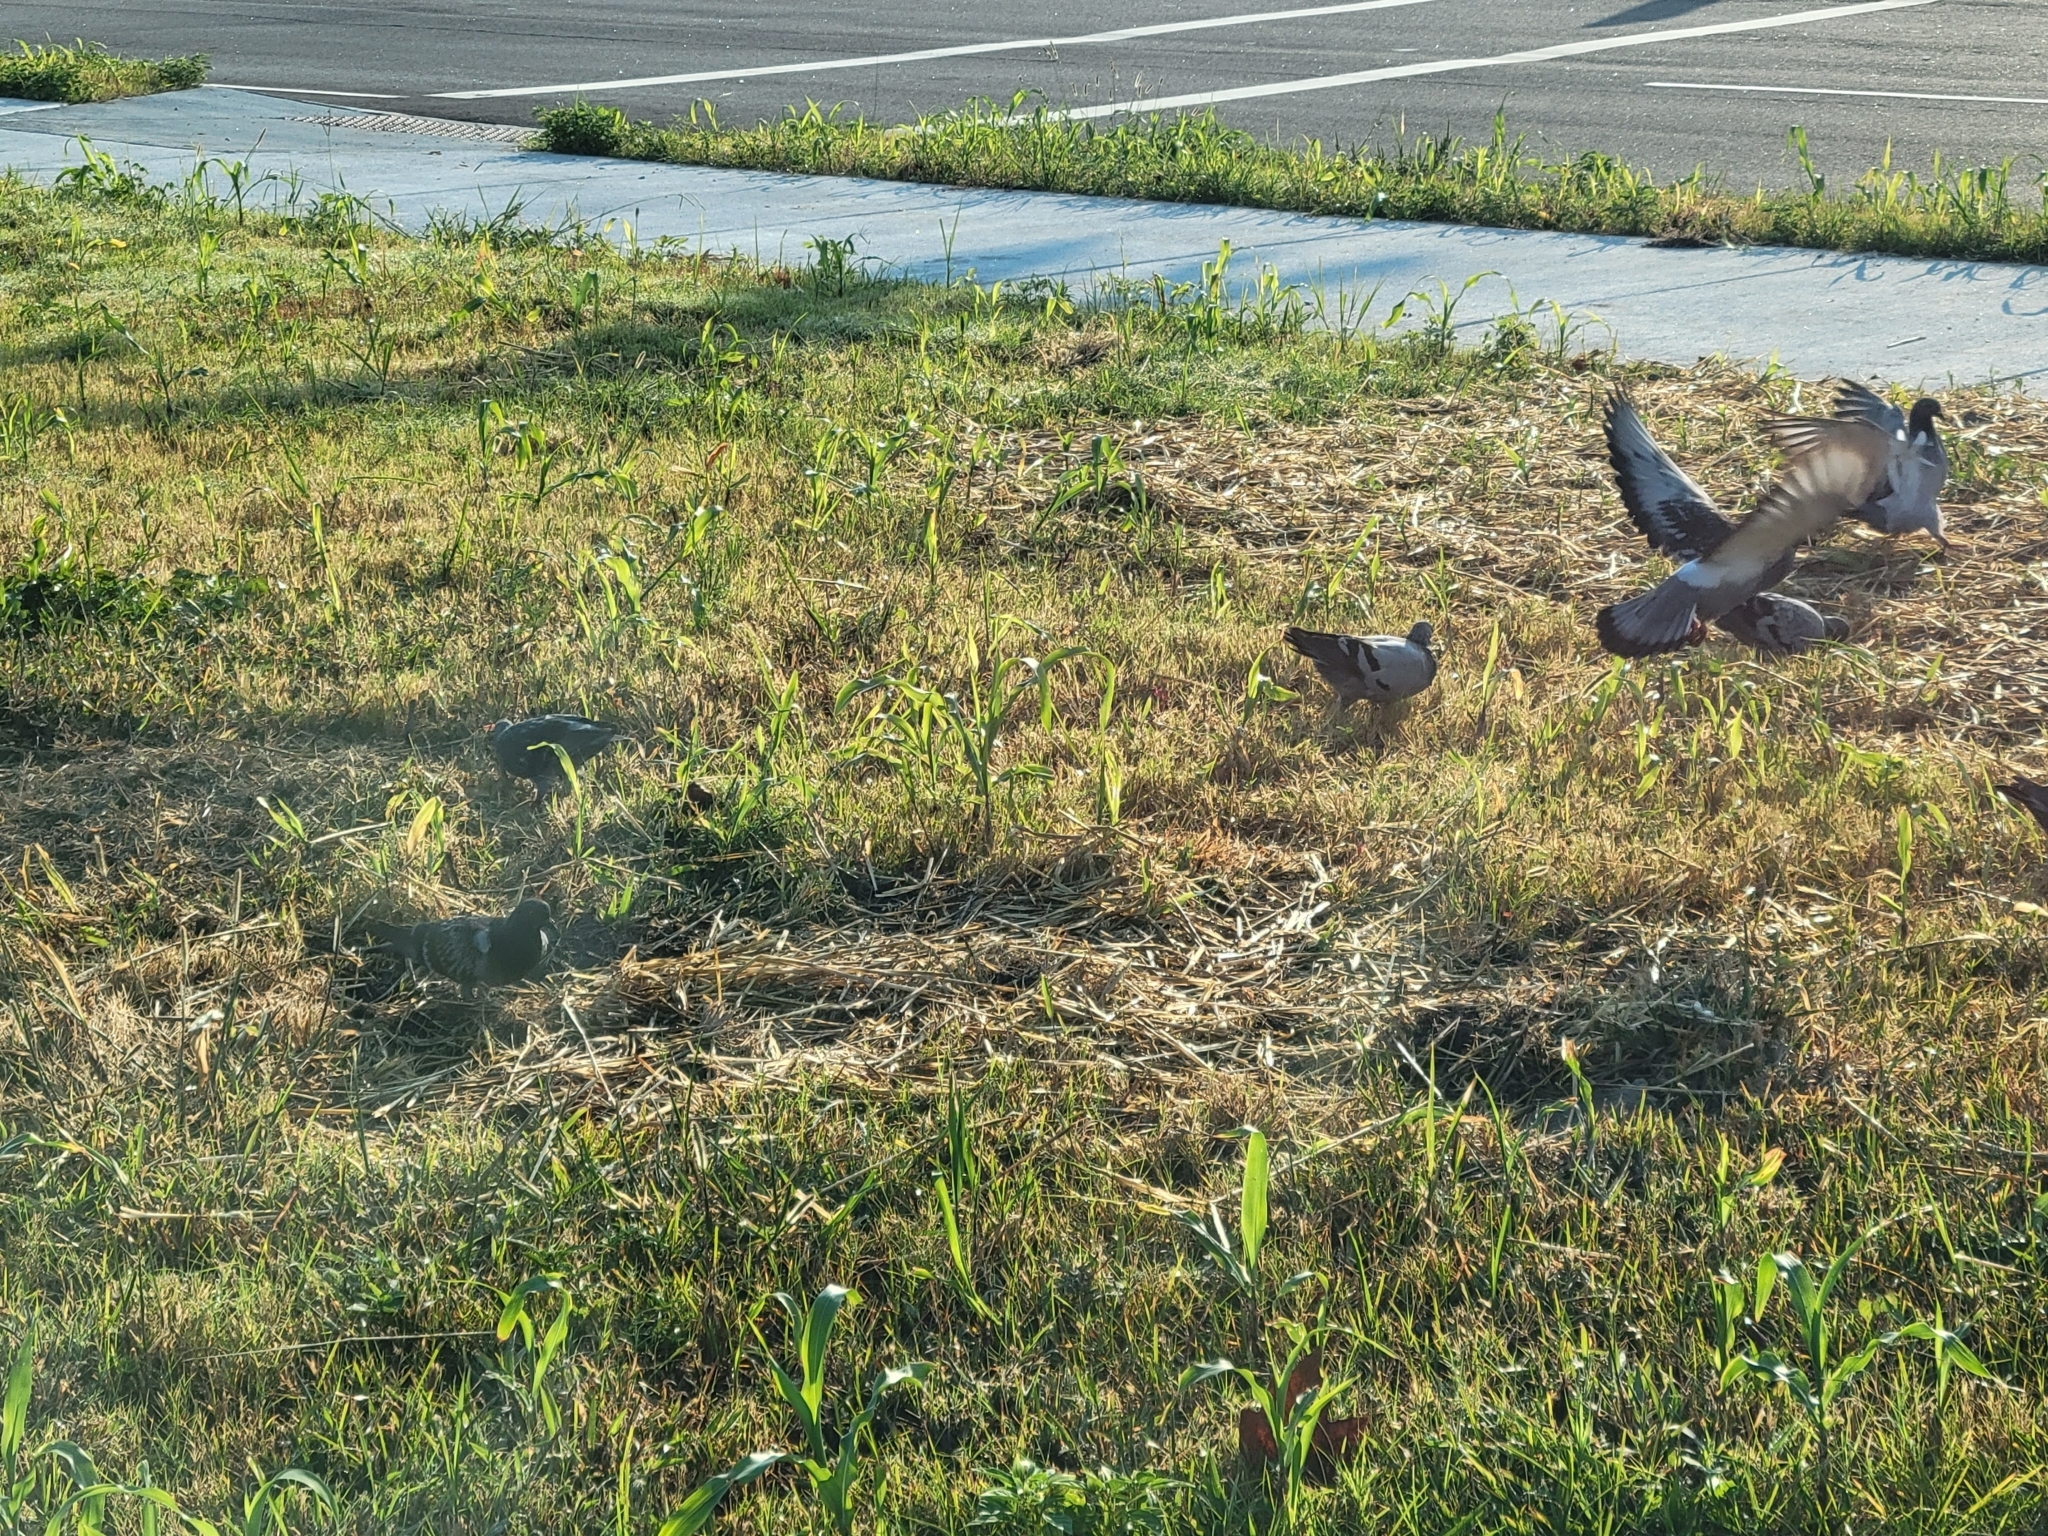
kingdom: Animalia
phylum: Chordata
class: Aves
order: Columbiformes
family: Columbidae
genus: Columba
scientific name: Columba livia
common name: Rock pigeon
